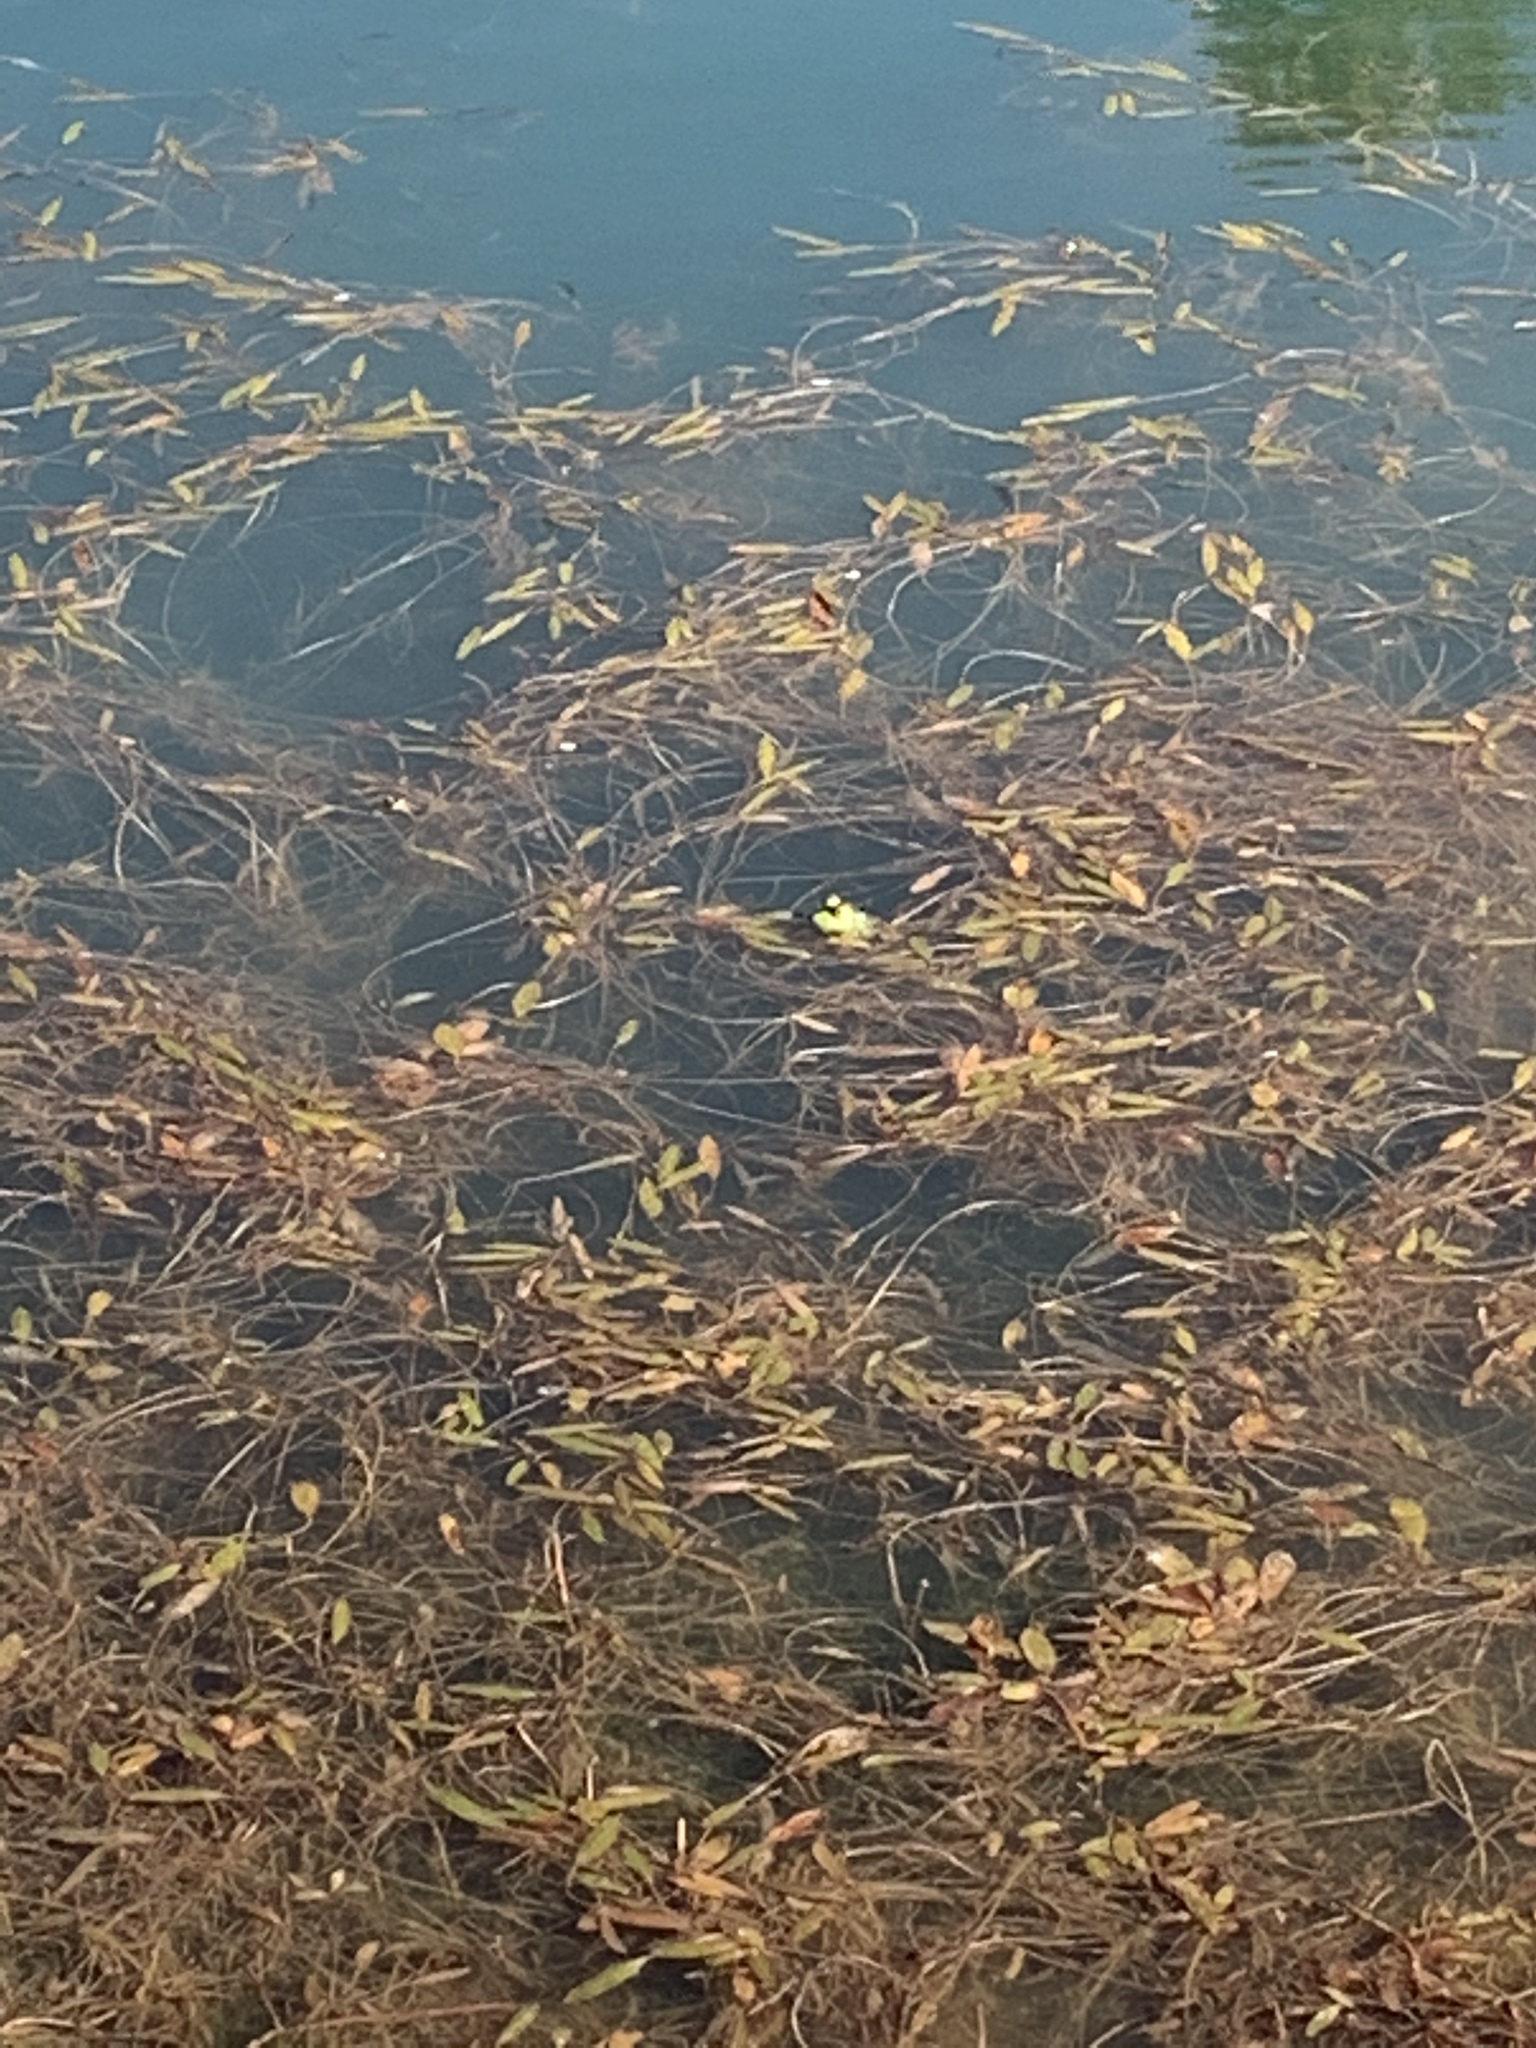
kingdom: Animalia
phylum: Chordata
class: Amphibia
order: Anura
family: Ranidae
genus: Lithobates
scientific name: Lithobates catesbeianus
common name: American bullfrog
